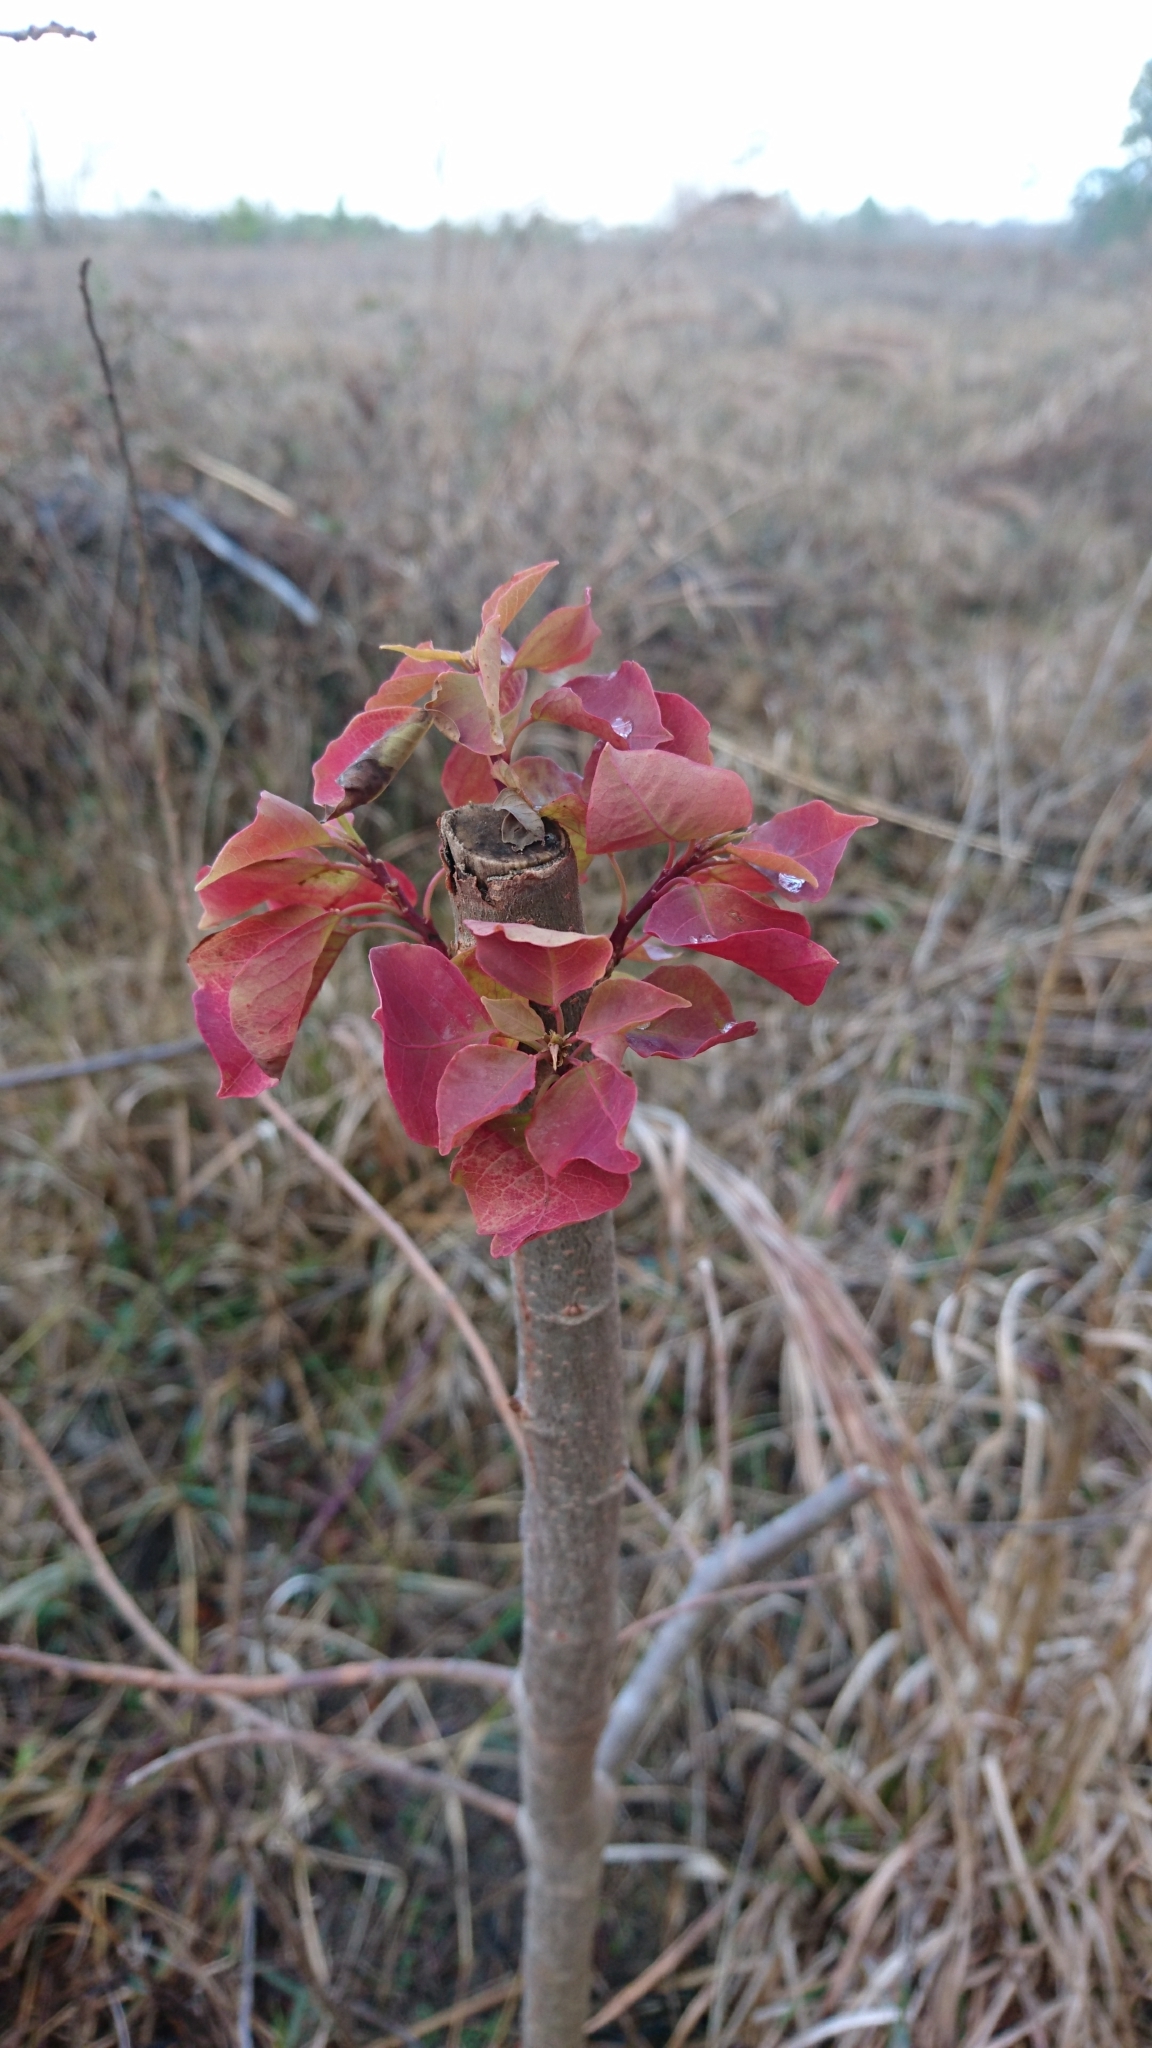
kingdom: Plantae
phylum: Tracheophyta
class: Magnoliopsida
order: Malpighiales
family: Euphorbiaceae
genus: Triadica
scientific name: Triadica sebifera
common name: Chinese tallow
